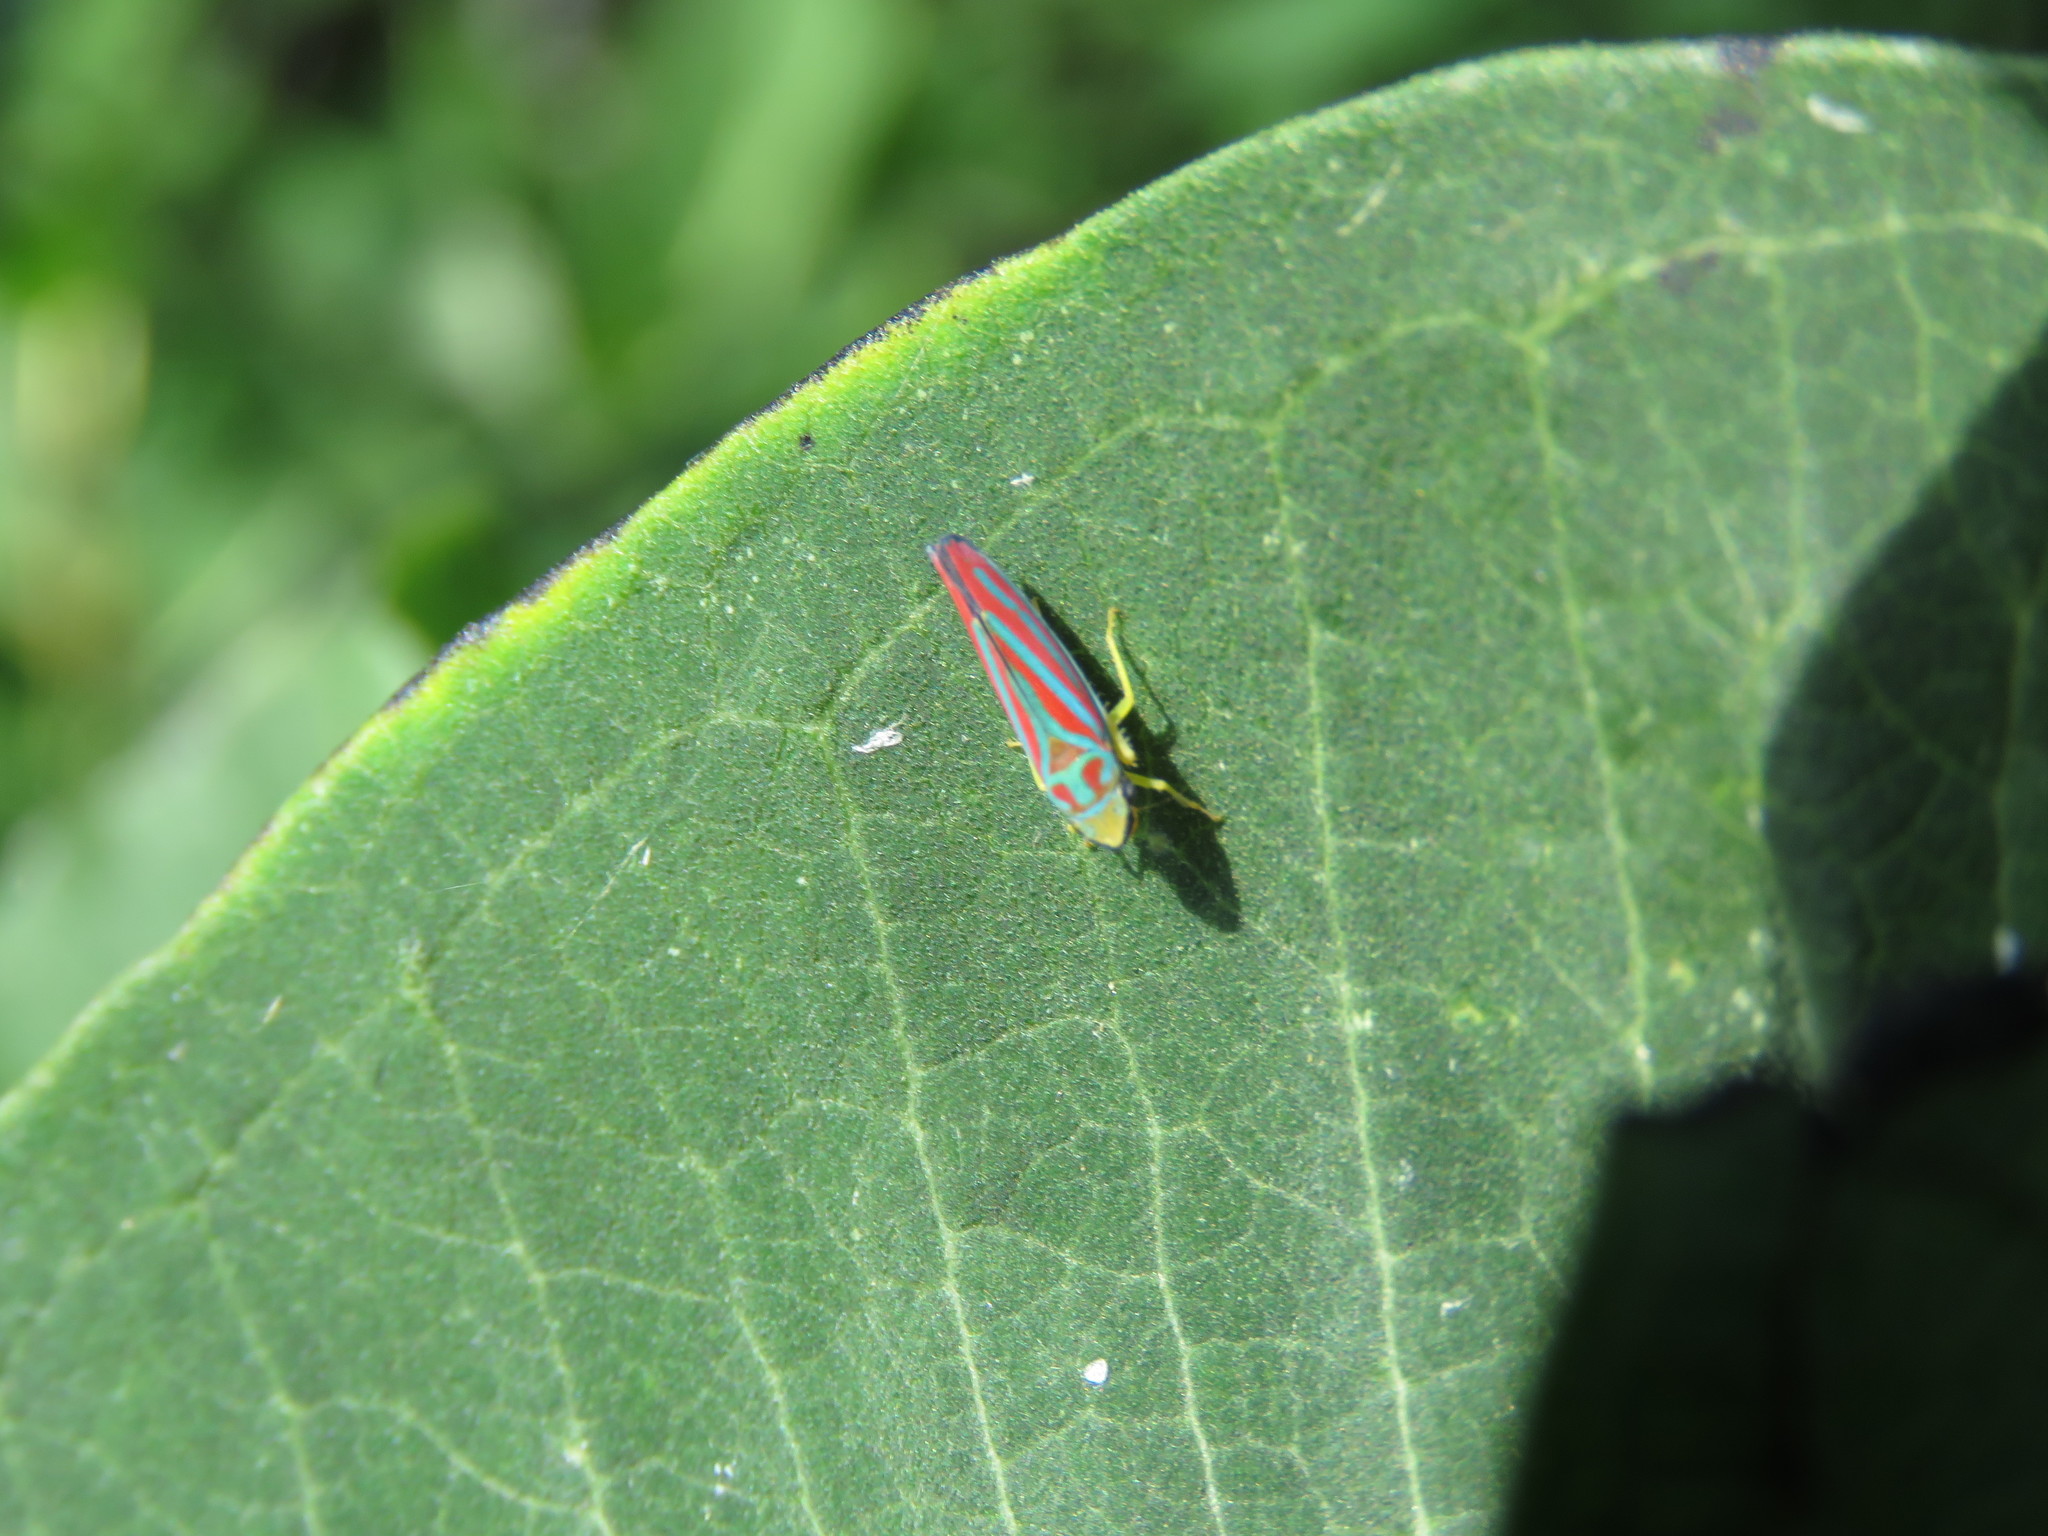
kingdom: Animalia
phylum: Arthropoda
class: Insecta
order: Hemiptera
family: Cicadellidae
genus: Graphocephala
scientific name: Graphocephala coccinea
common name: Candy-striped leafhopper
